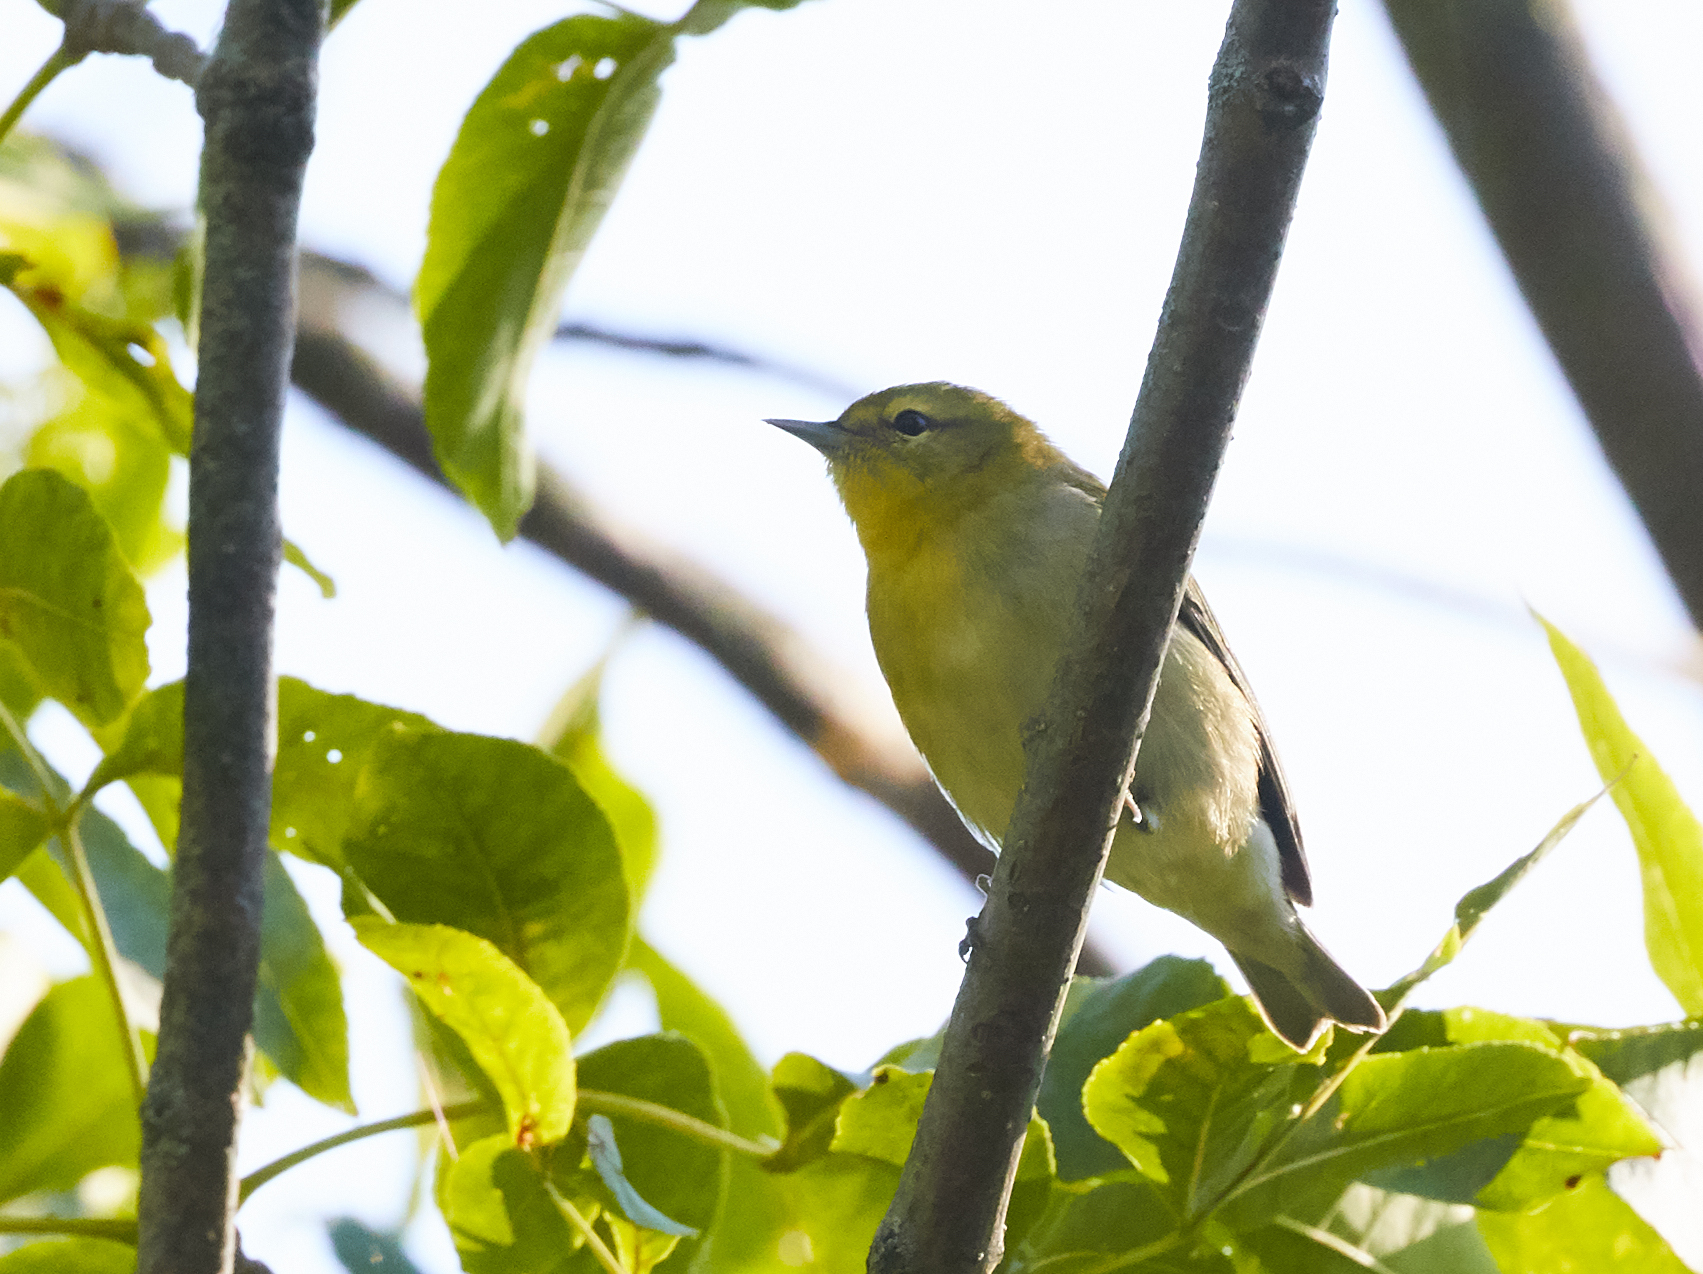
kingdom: Animalia
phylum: Chordata
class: Aves
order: Passeriformes
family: Parulidae
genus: Leiothlypis
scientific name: Leiothlypis peregrina
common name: Tennessee warbler
